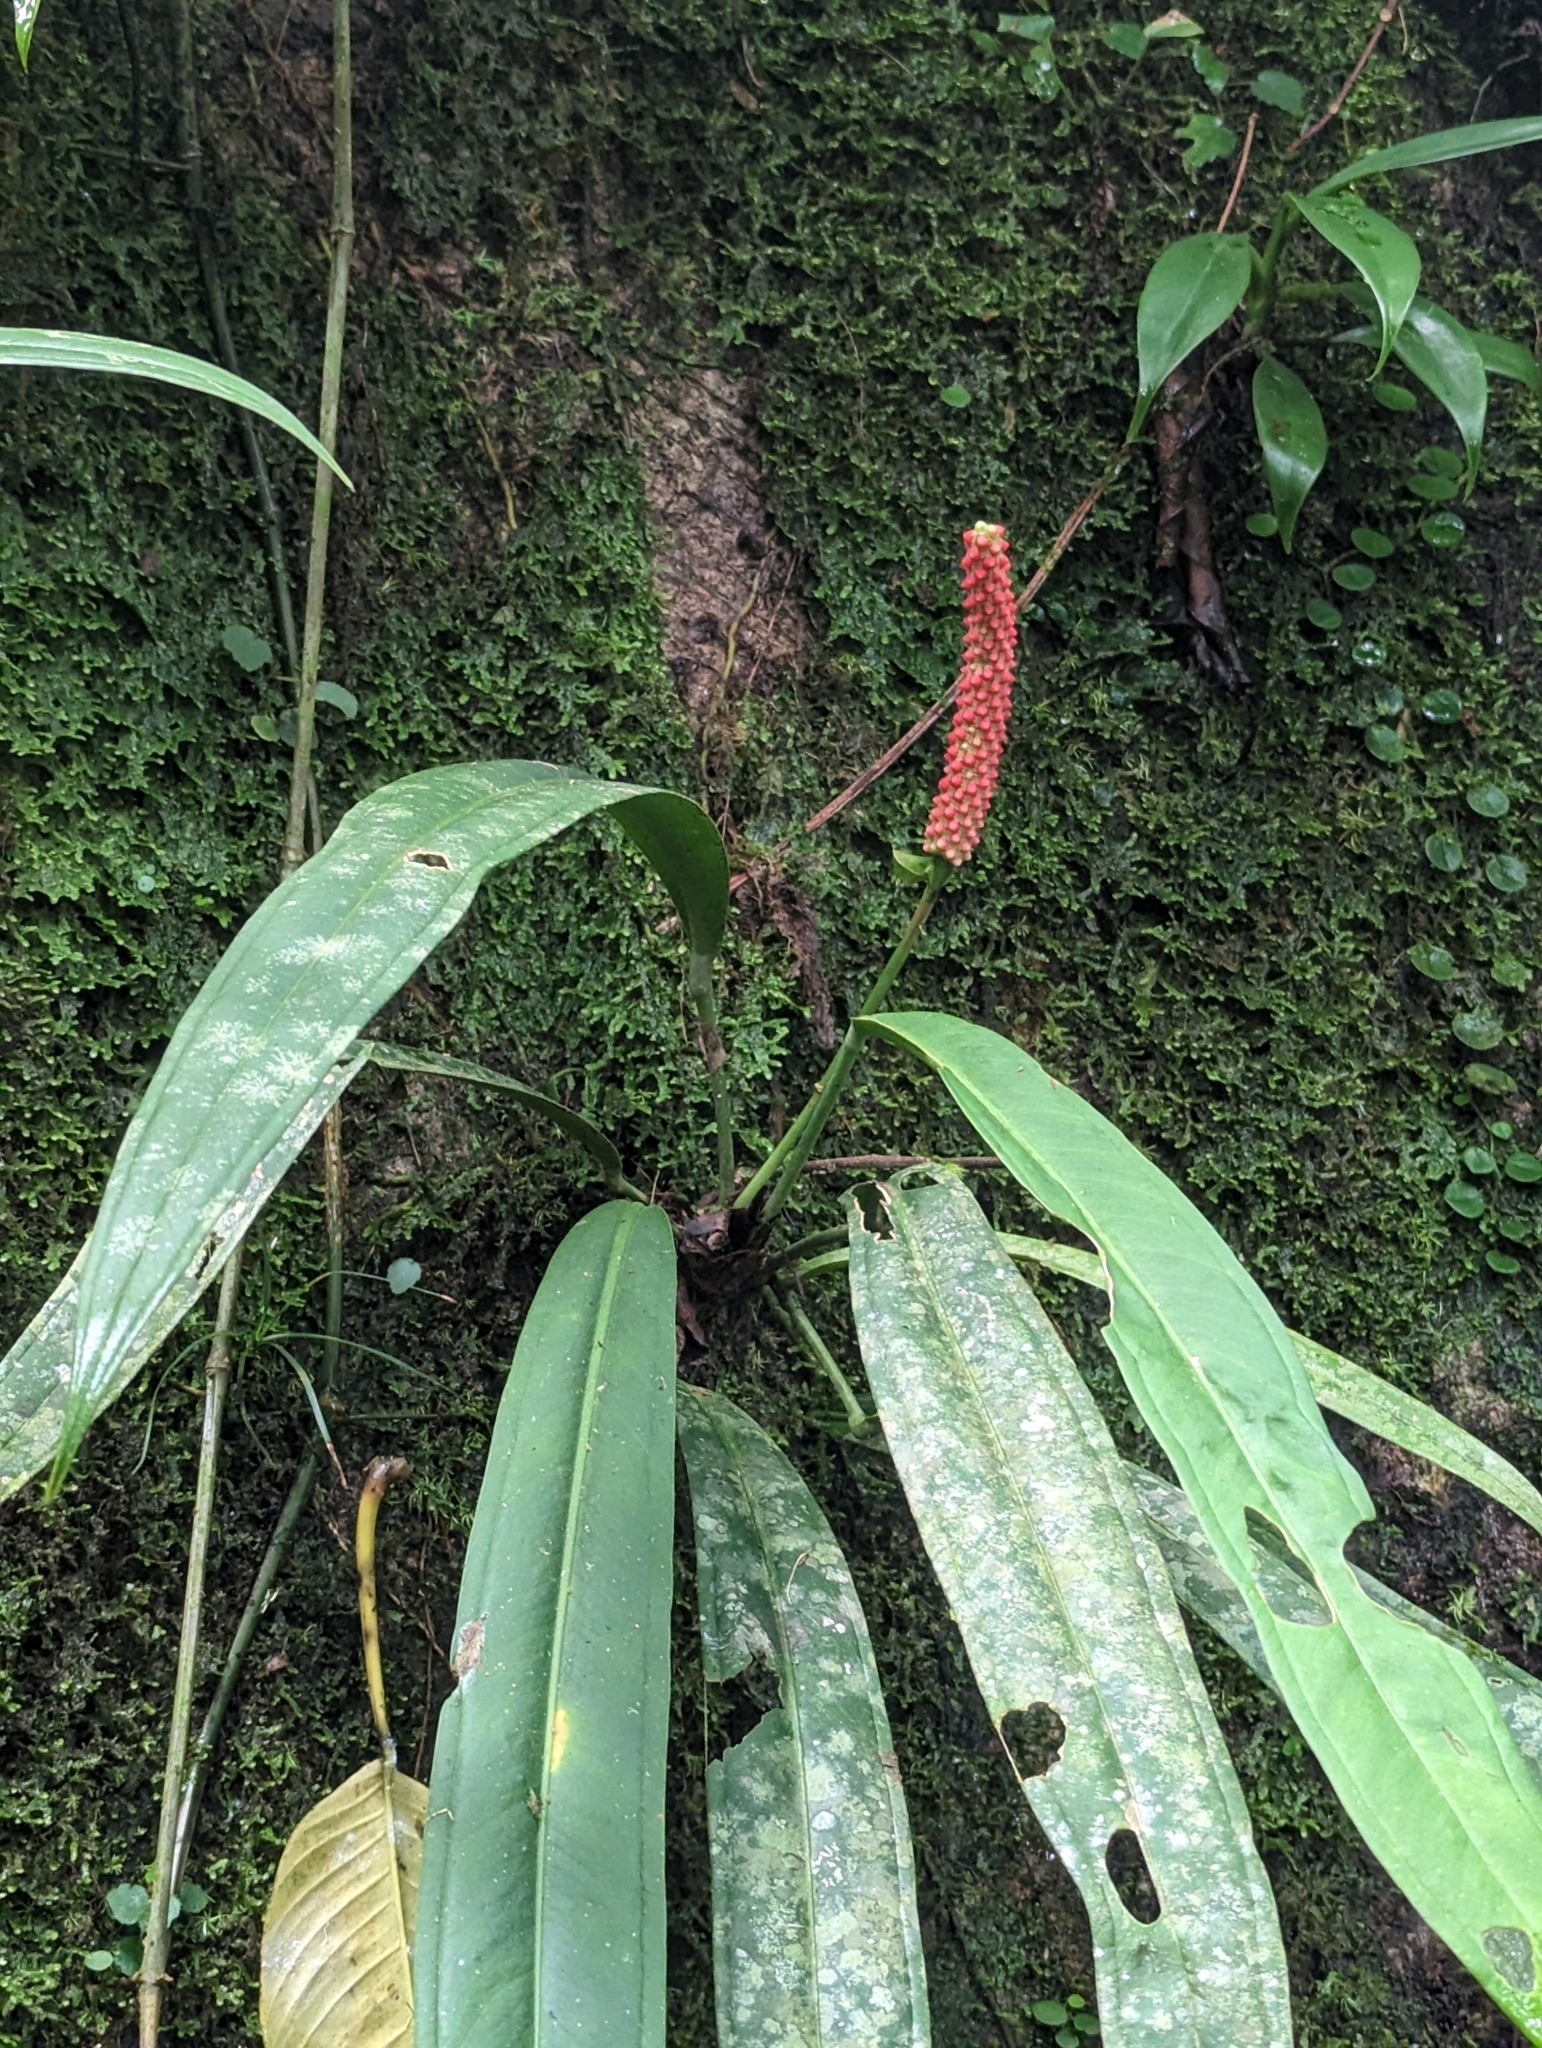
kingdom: Plantae
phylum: Tracheophyta
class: Liliopsida
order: Alismatales
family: Araceae
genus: Anthurium
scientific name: Anthurium bakeri
